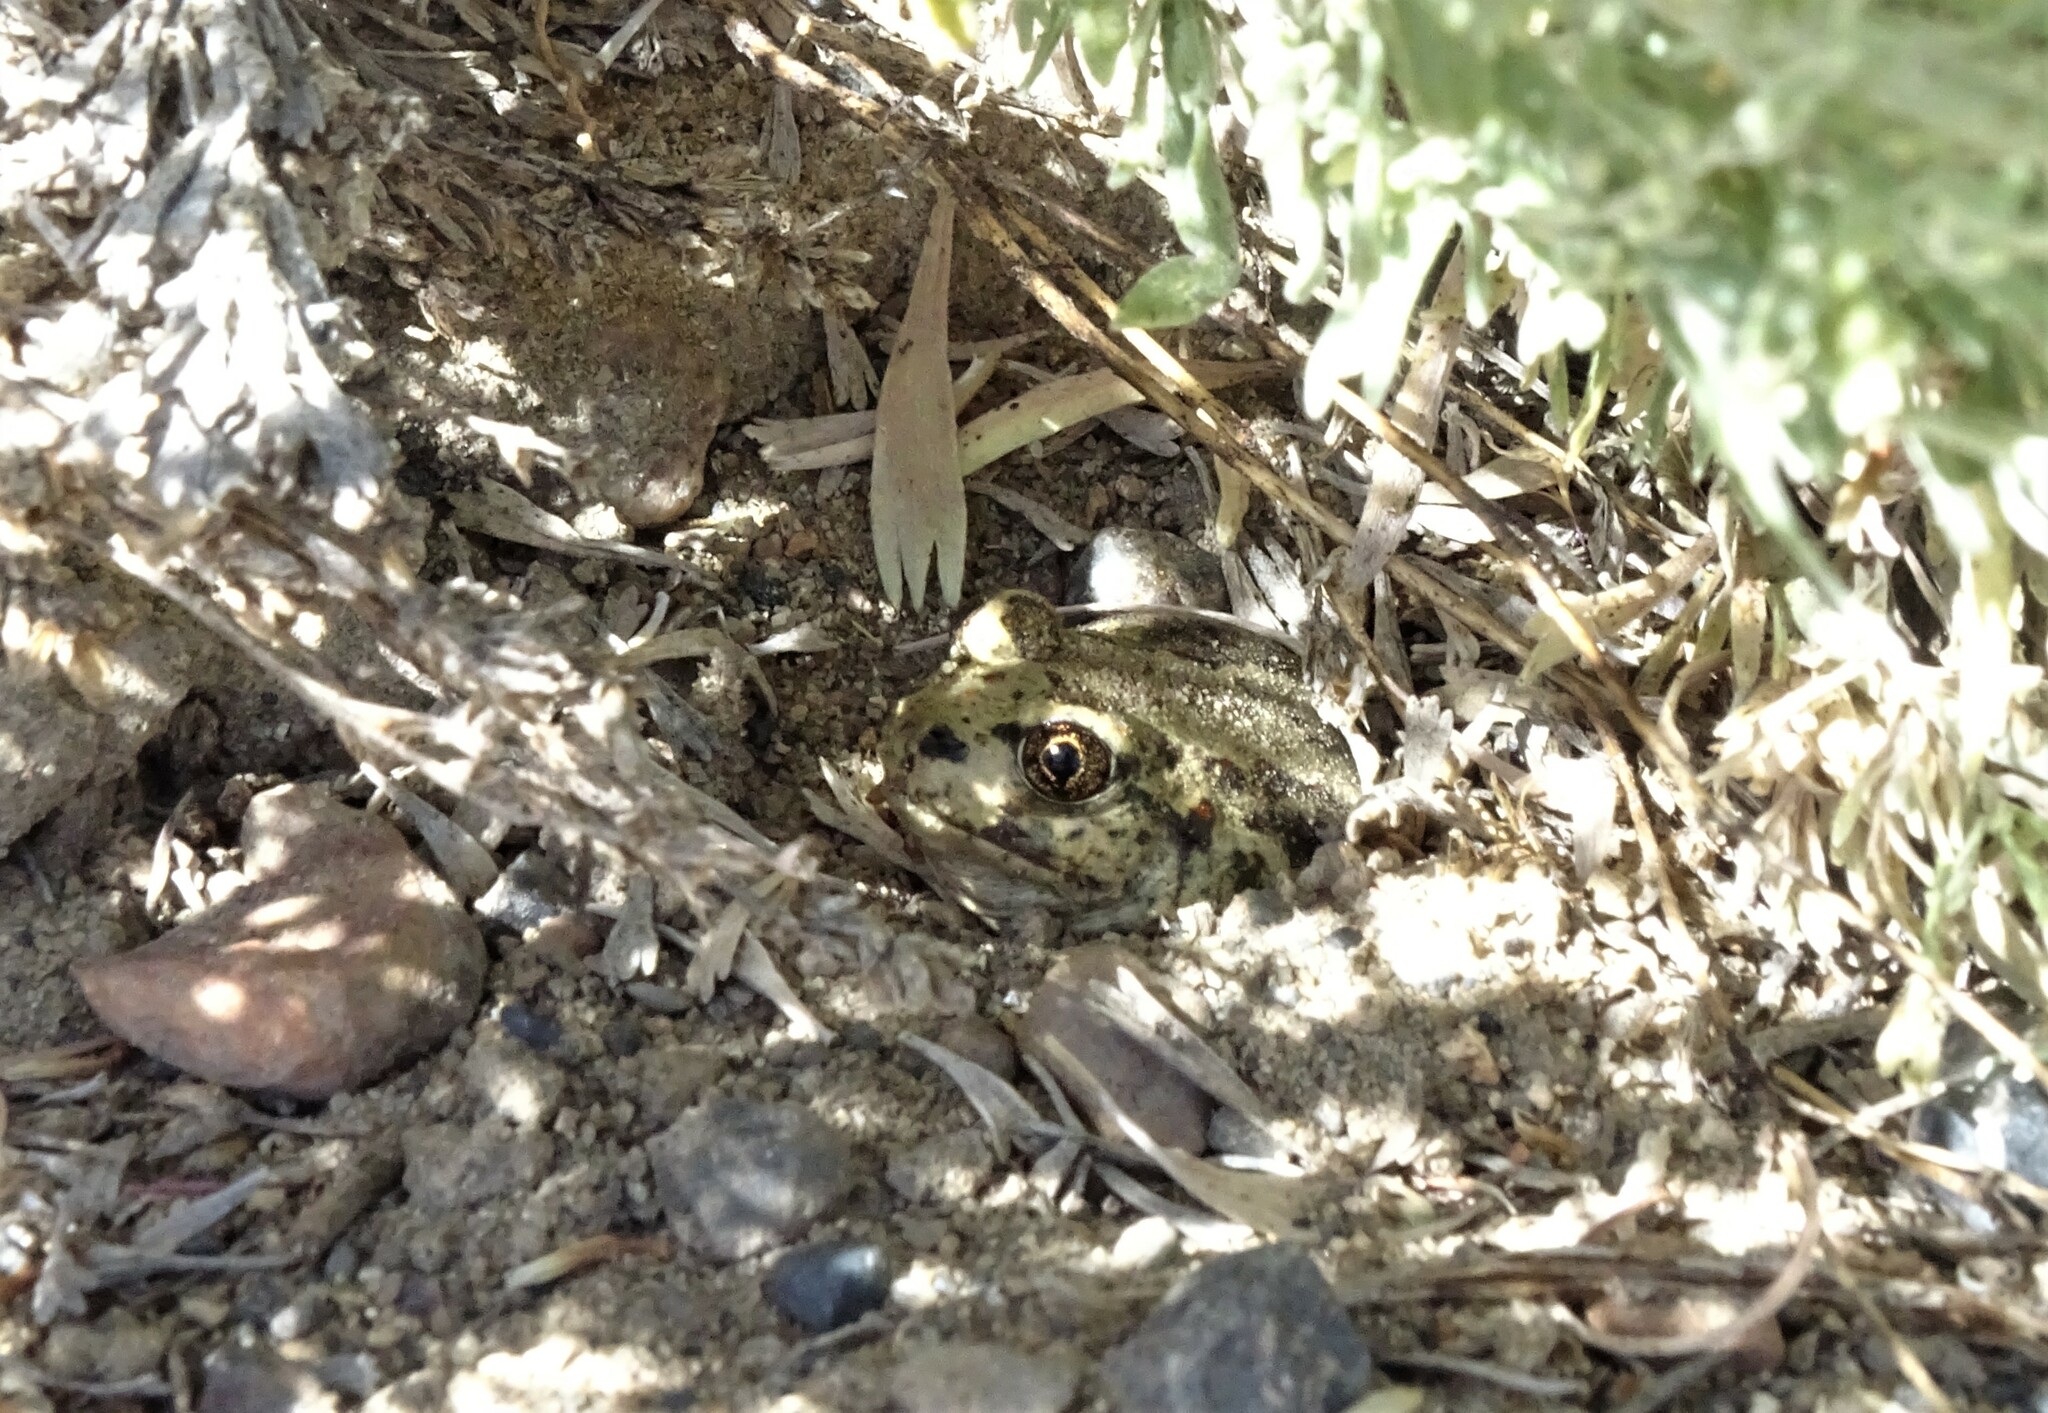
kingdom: Animalia
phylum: Chordata
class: Amphibia
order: Anura
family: Scaphiopodidae
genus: Spea
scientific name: Spea intermontana
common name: Great basin spadefoot
